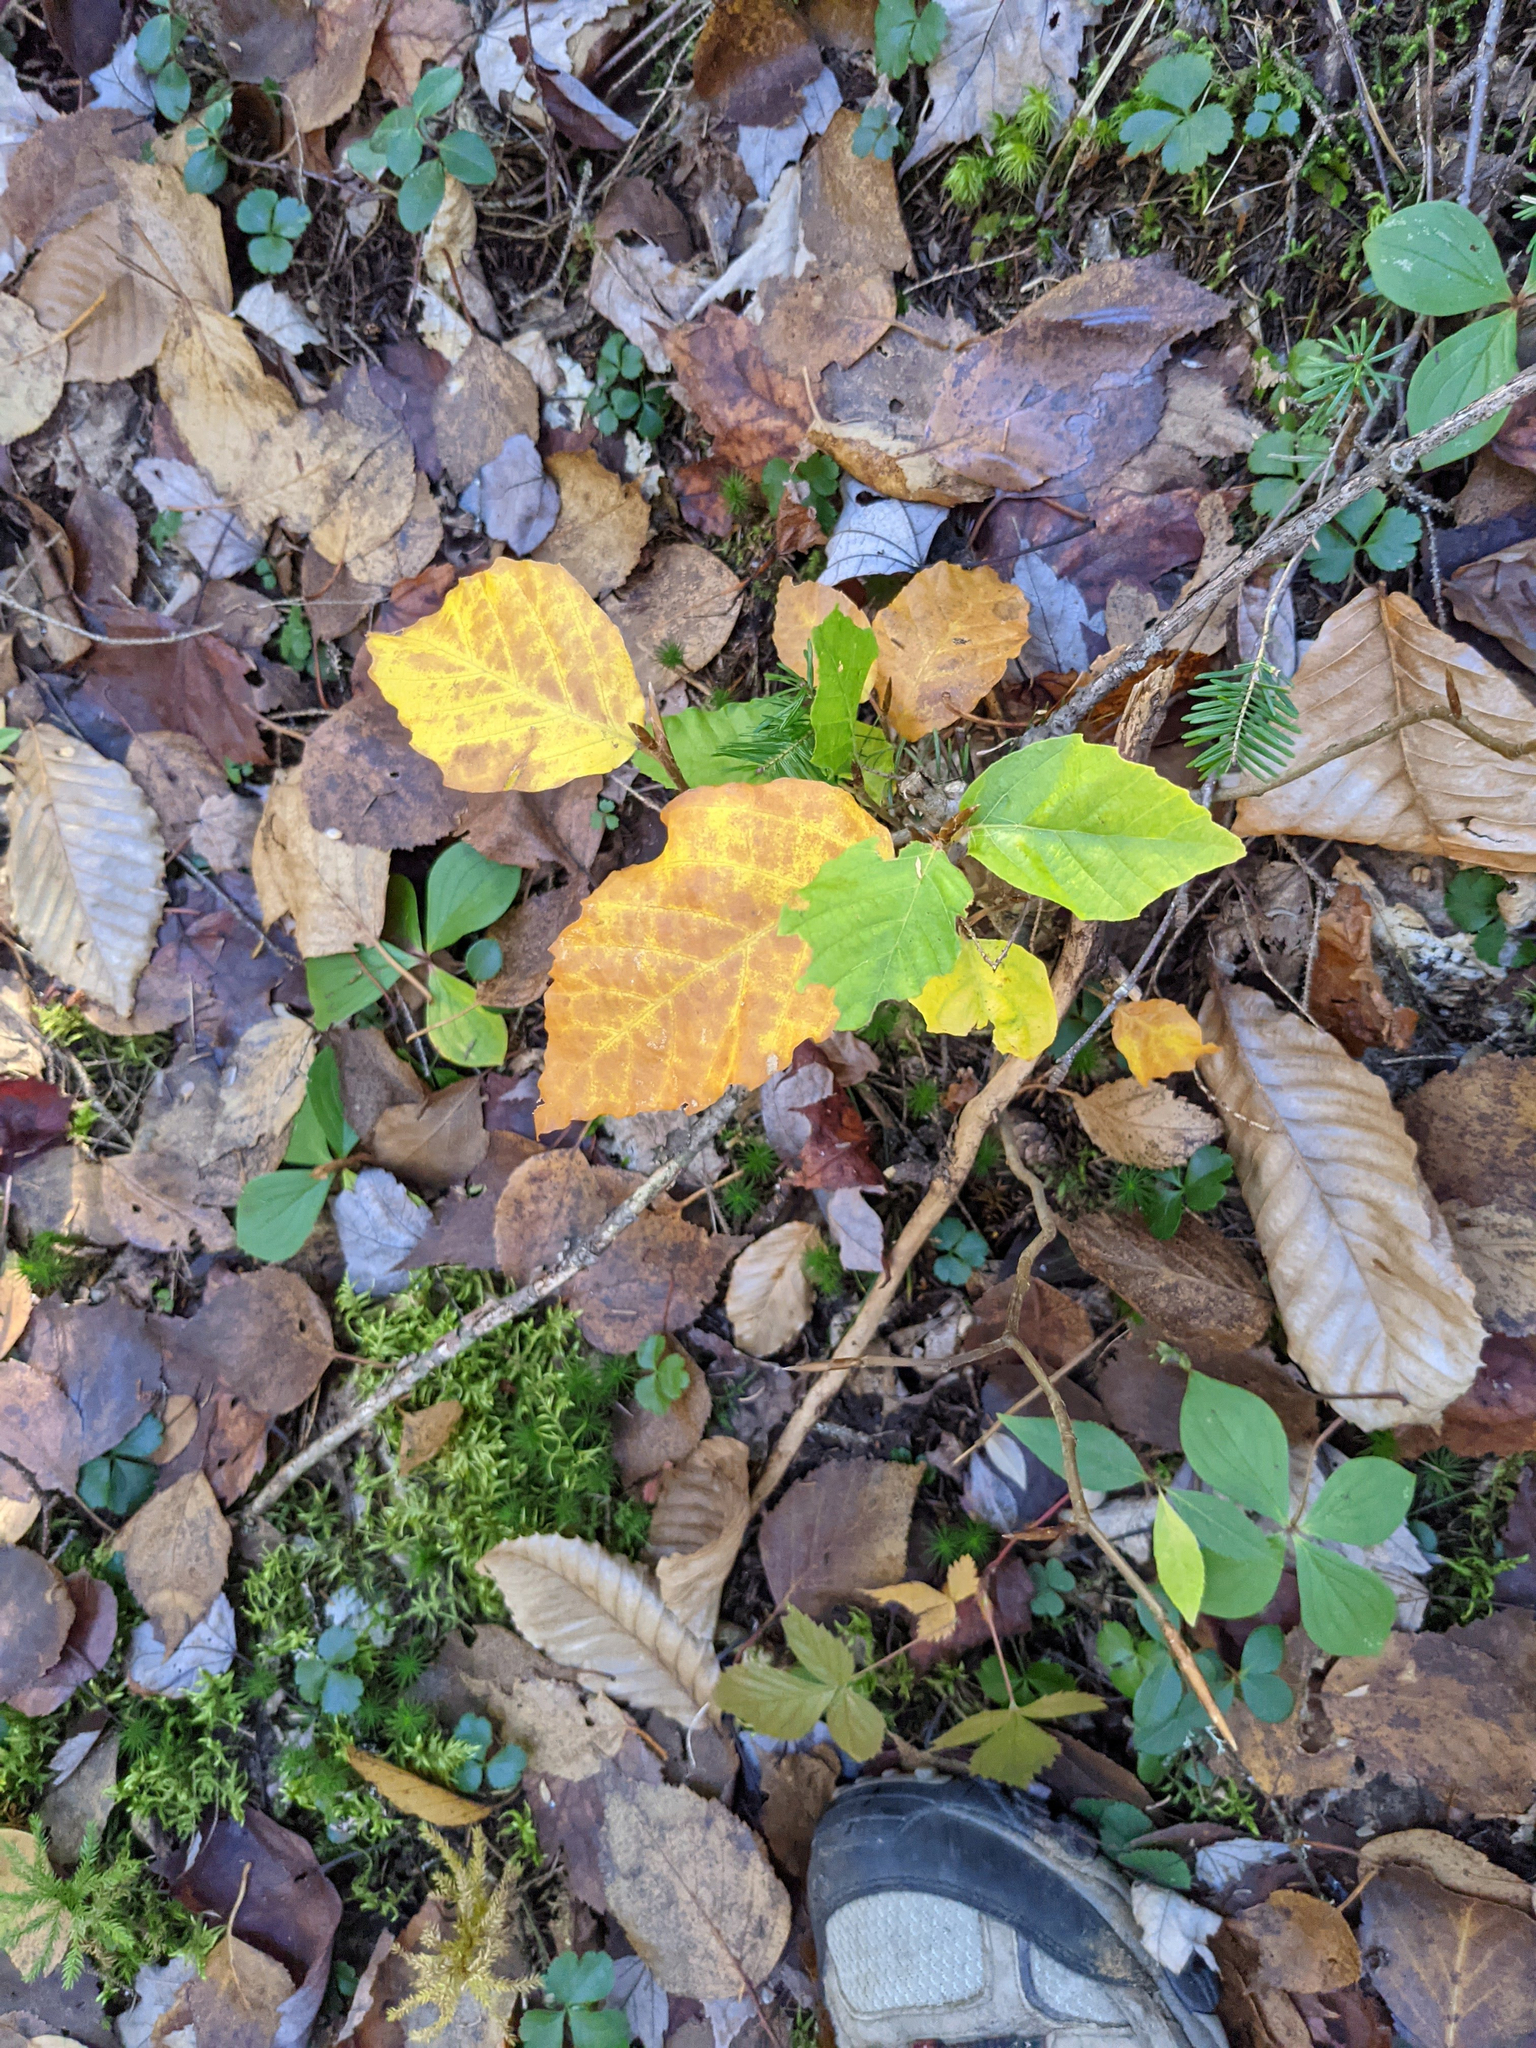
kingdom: Plantae
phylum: Tracheophyta
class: Magnoliopsida
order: Fagales
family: Fagaceae
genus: Fagus
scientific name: Fagus grandifolia
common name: American beech
